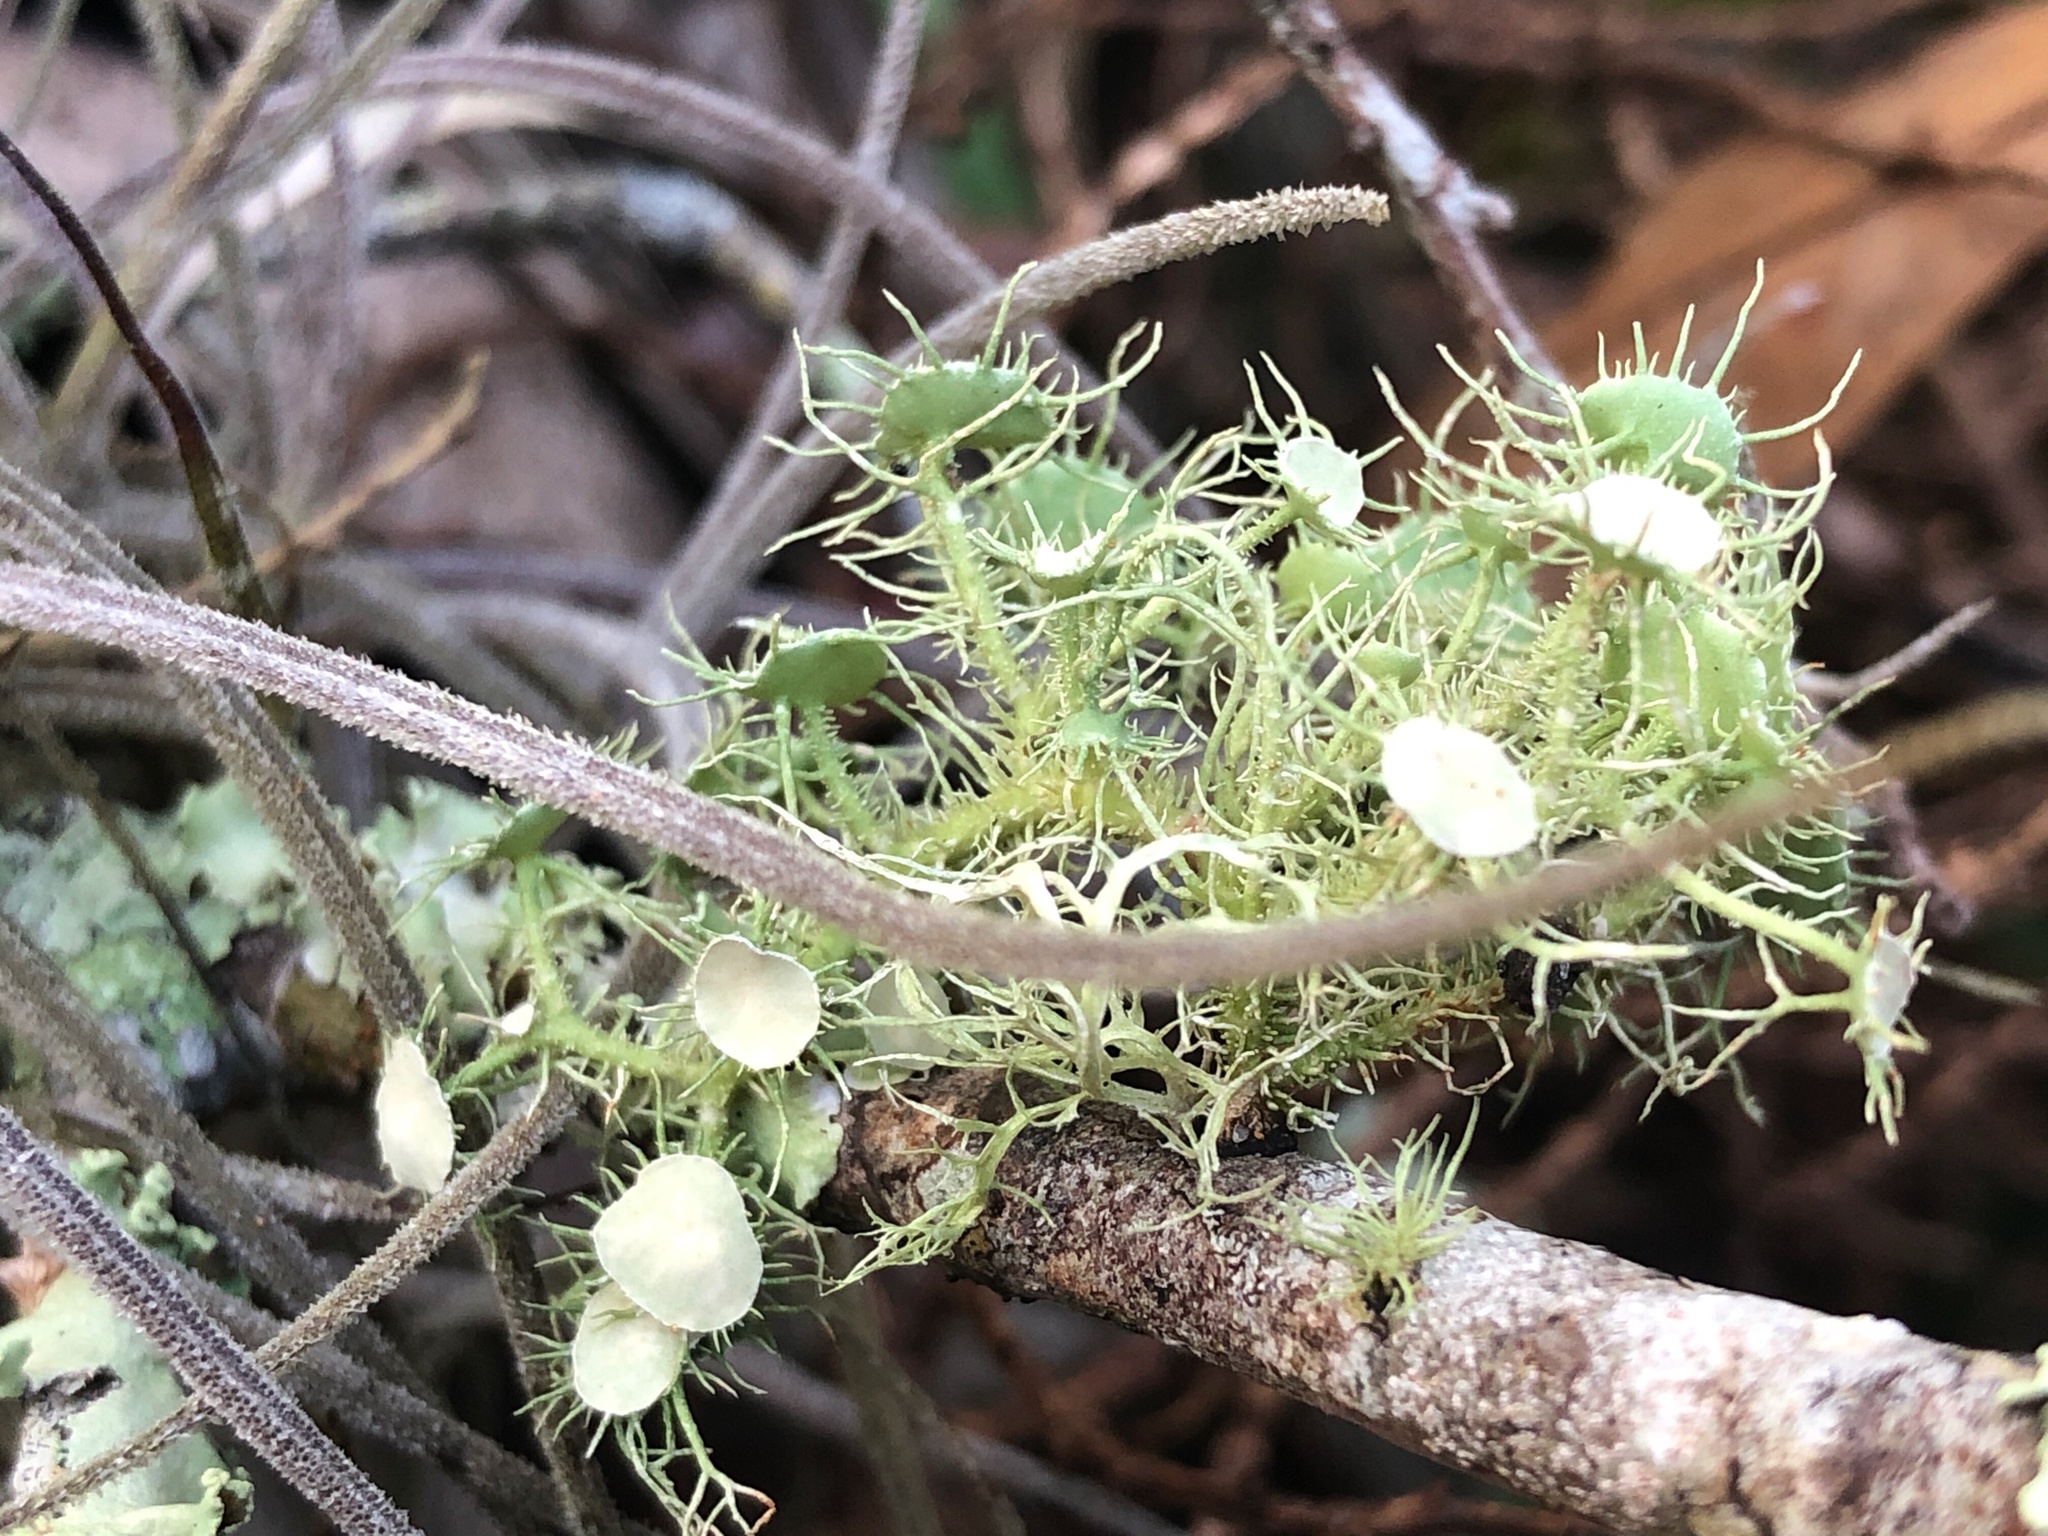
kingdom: Fungi
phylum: Ascomycota
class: Lecanoromycetes
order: Lecanorales
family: Parmeliaceae
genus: Usnea
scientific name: Usnea strigosa
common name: Bushy beard lichen
